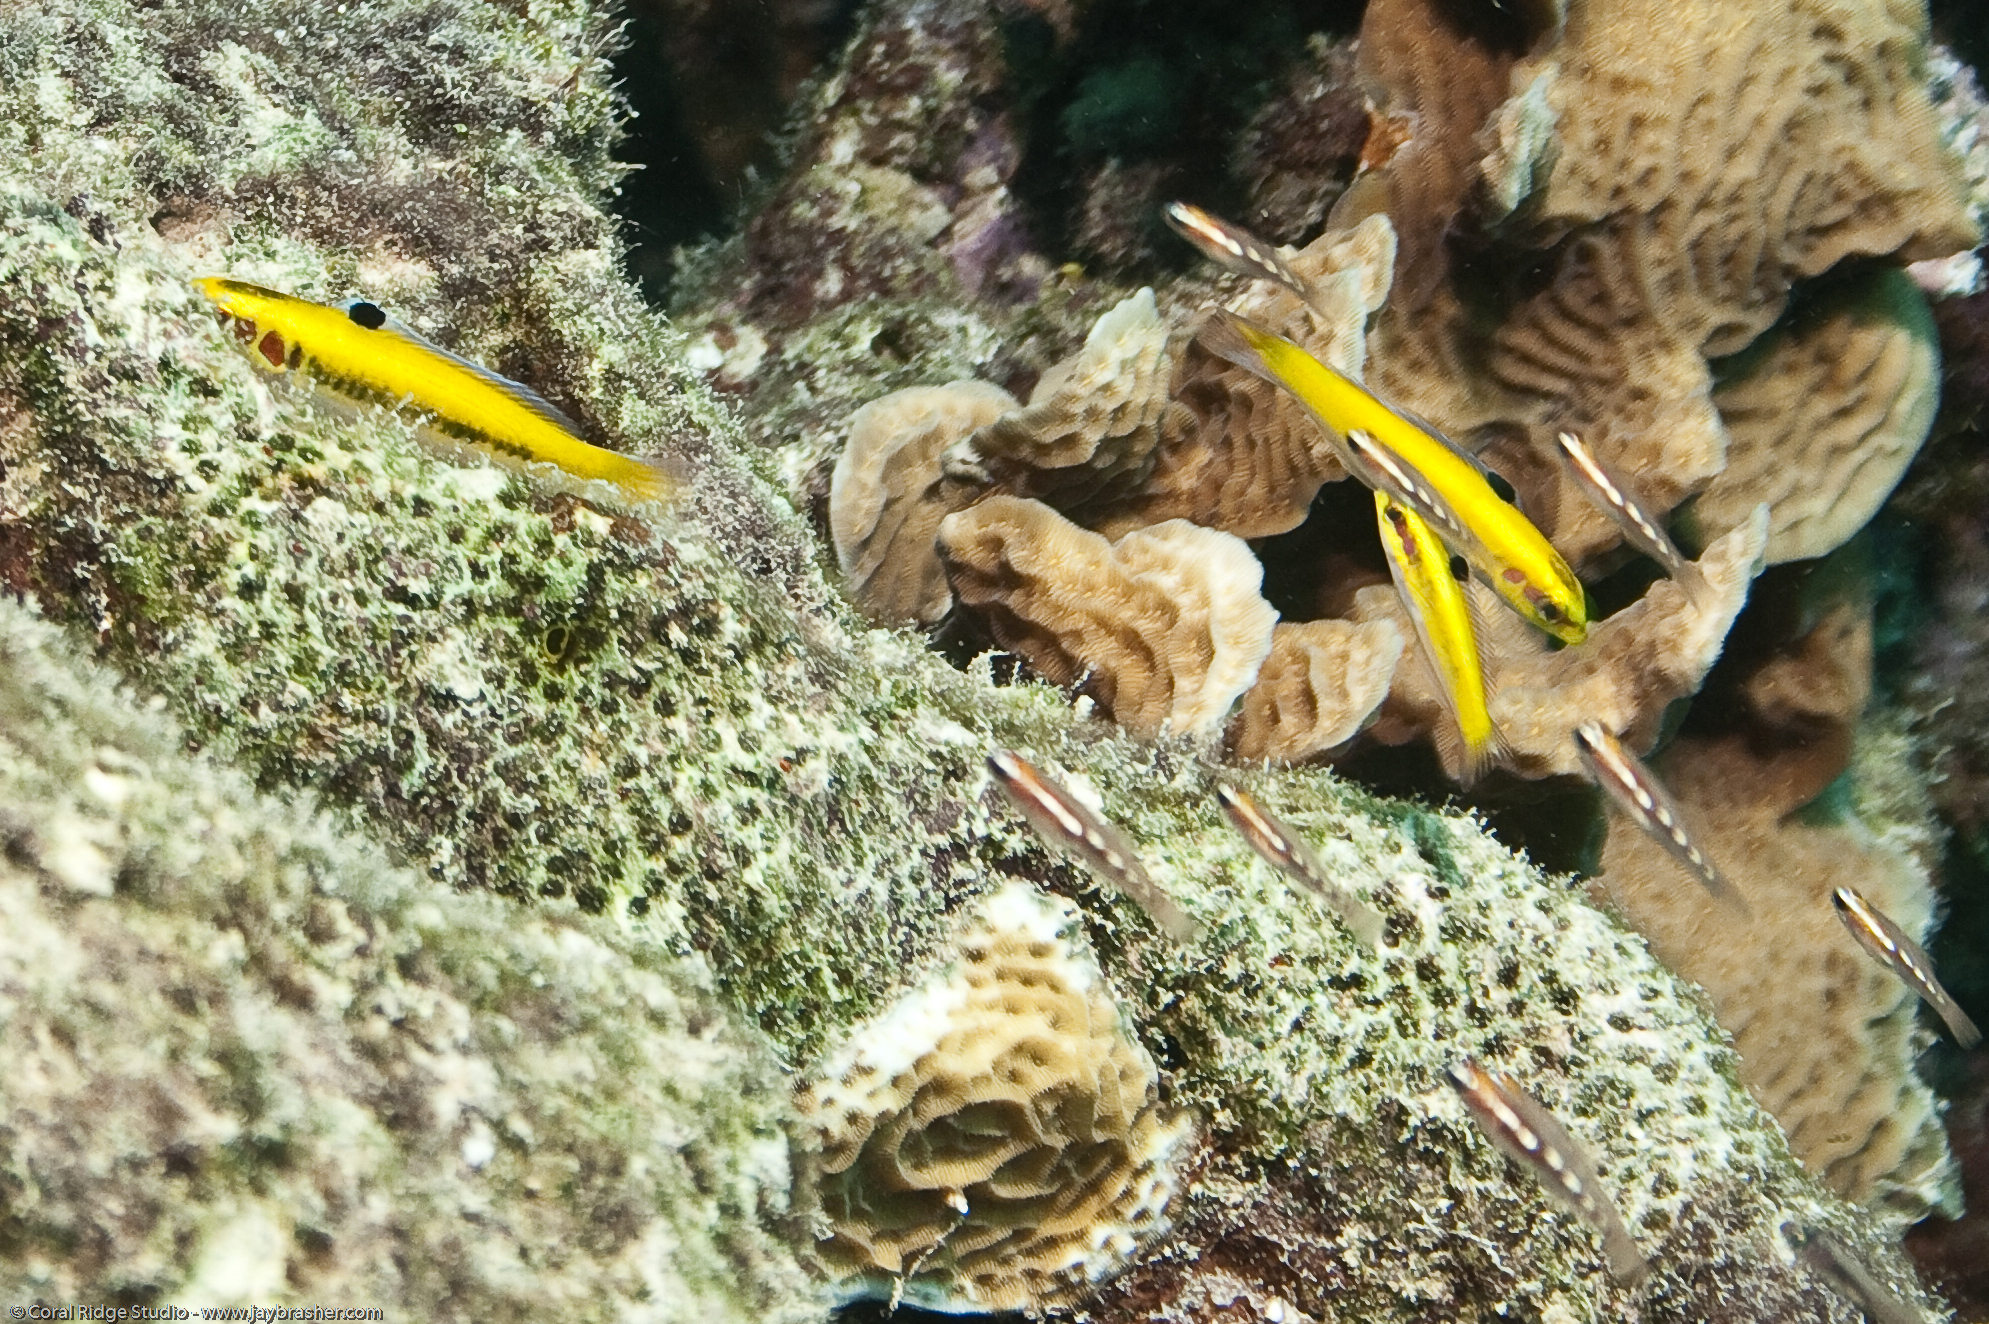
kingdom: Animalia
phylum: Chordata
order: Perciformes
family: Labridae
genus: Thalassoma
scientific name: Thalassoma bifasciatum
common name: Bluehead wrasse
